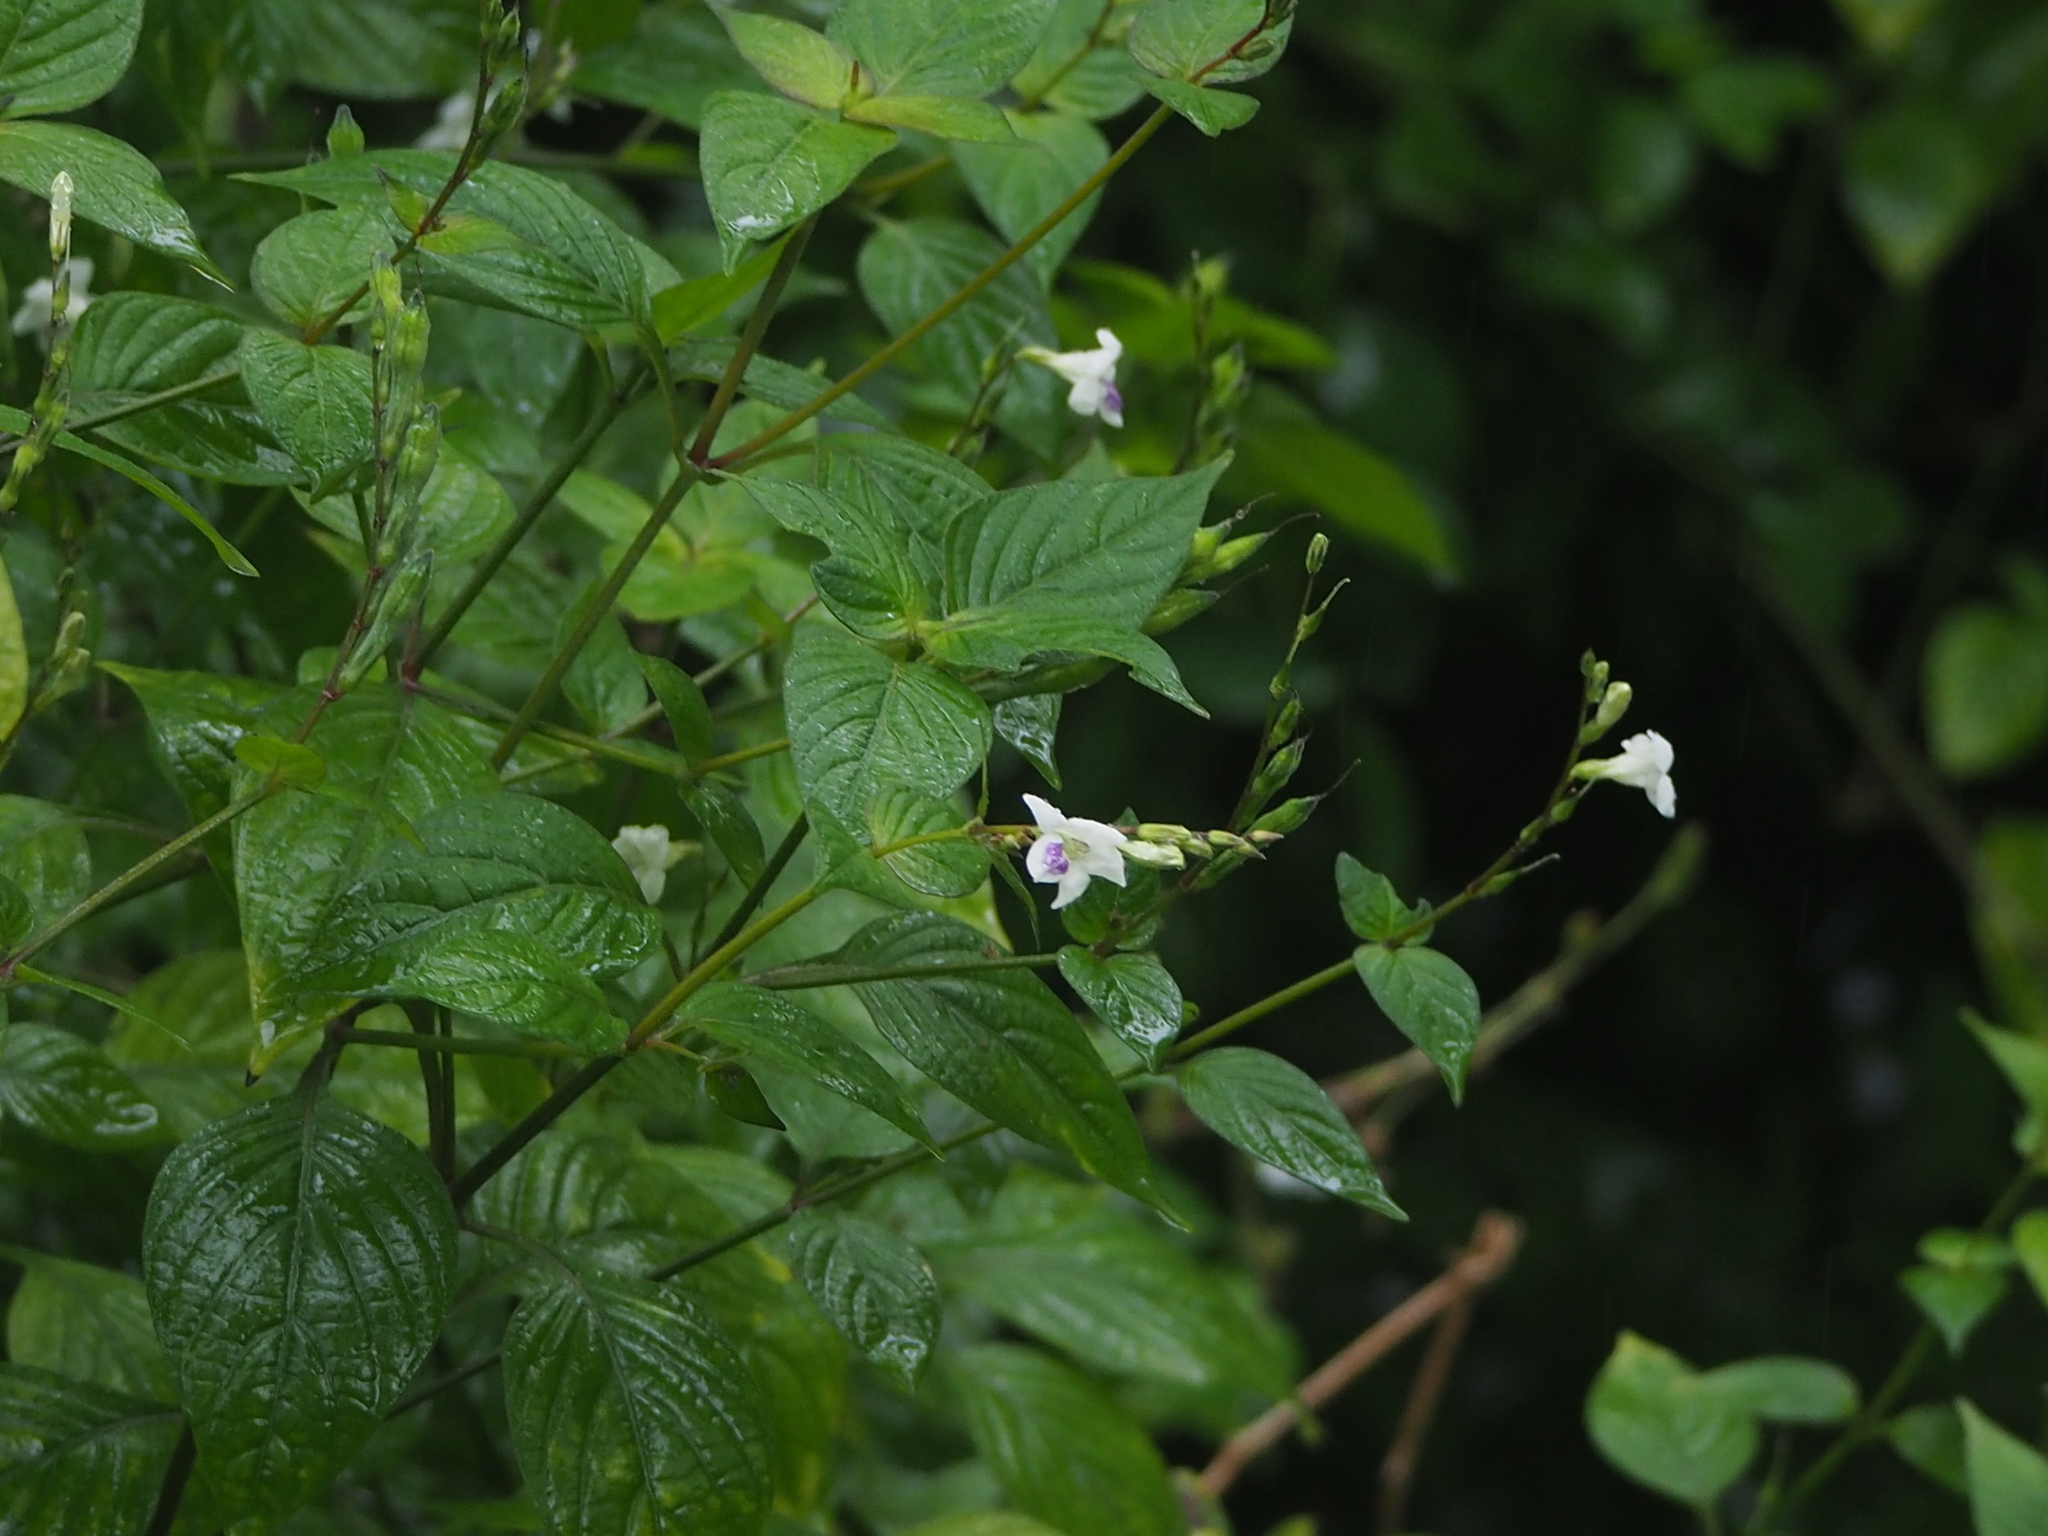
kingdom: Plantae
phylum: Tracheophyta
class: Magnoliopsida
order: Lamiales
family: Acanthaceae
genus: Asystasia
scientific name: Asystasia intrusa
